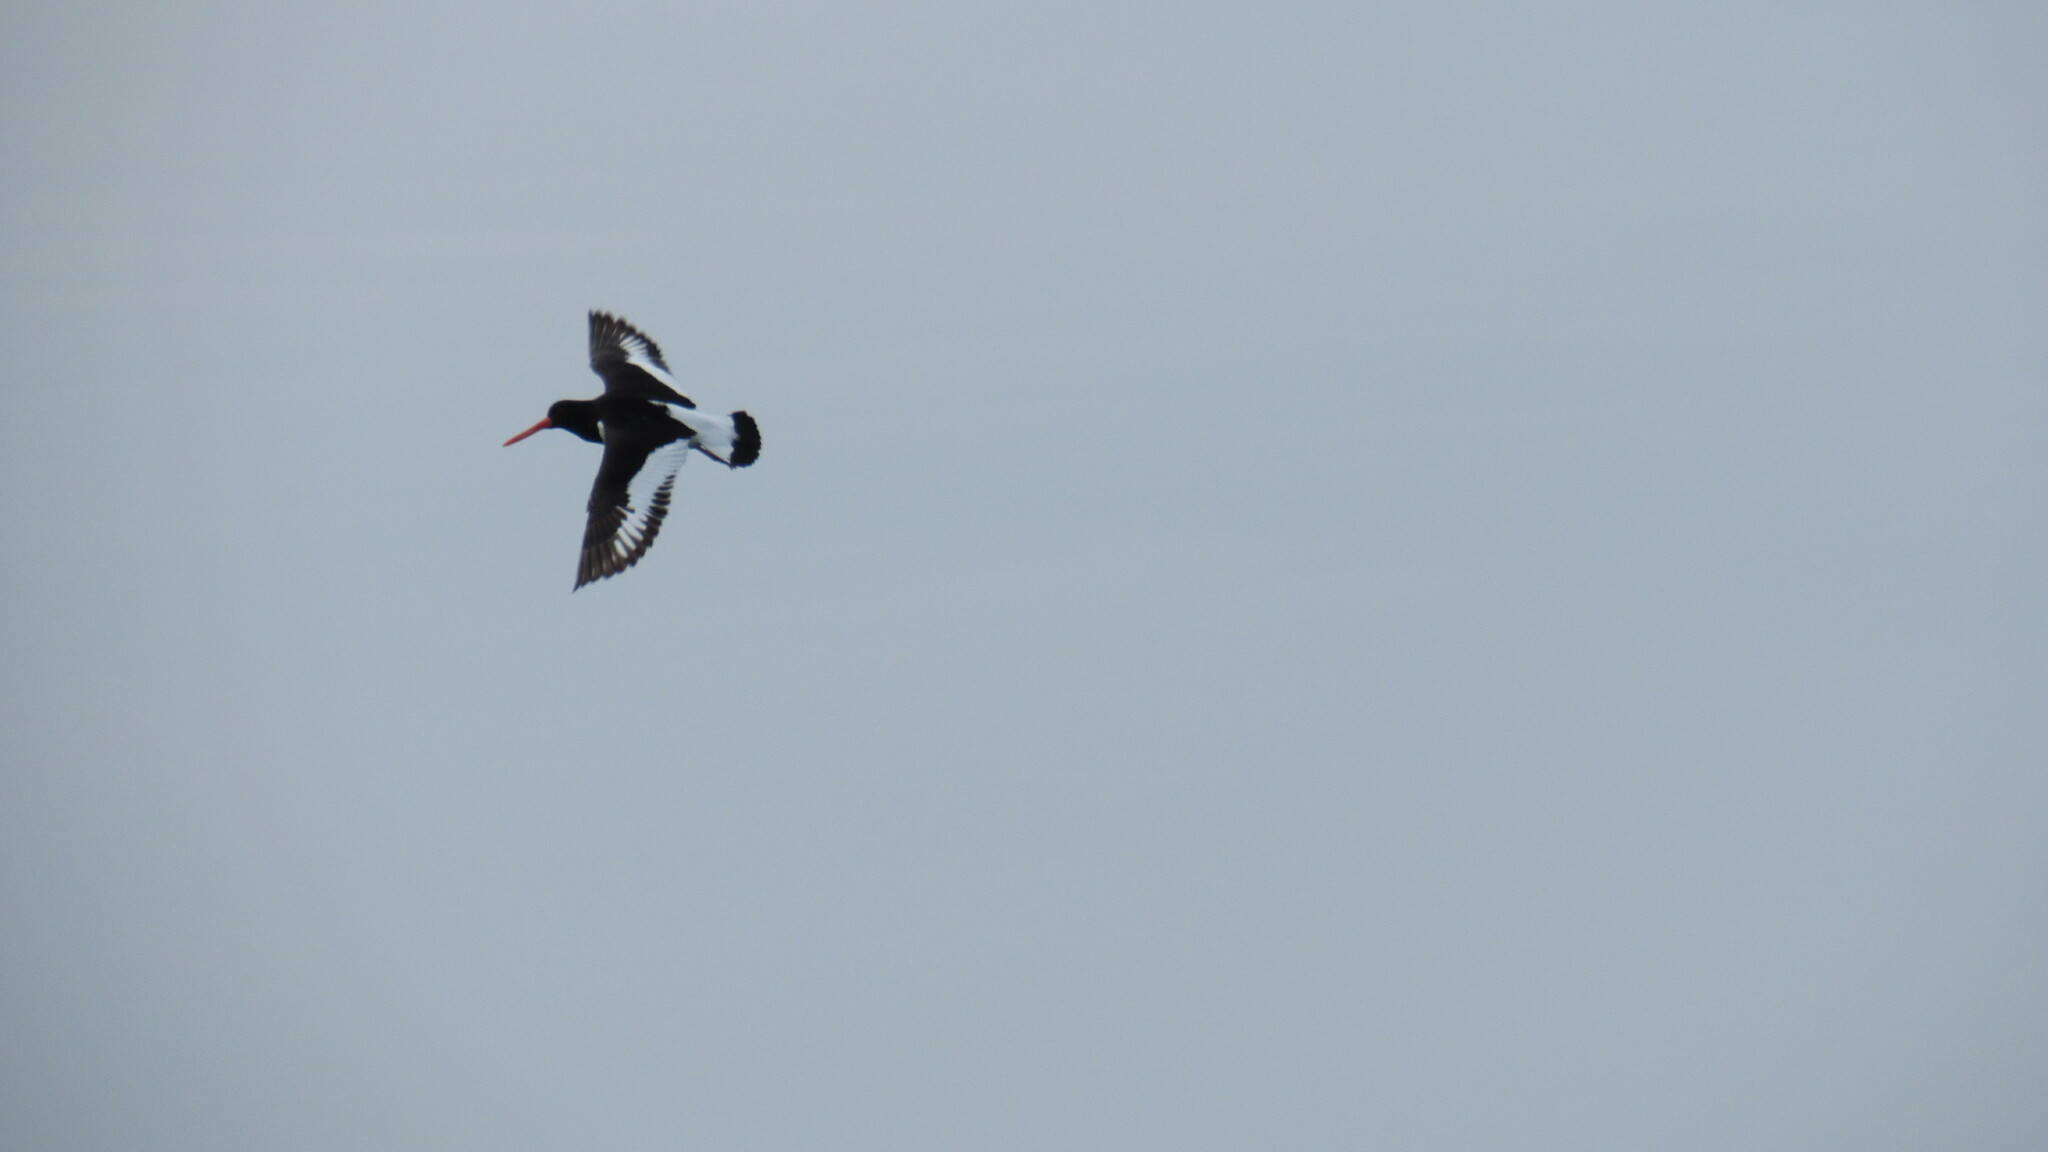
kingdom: Animalia
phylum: Chordata
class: Aves
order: Charadriiformes
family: Haematopodidae
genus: Haematopus
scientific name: Haematopus ostralegus
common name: Eurasian oystercatcher
